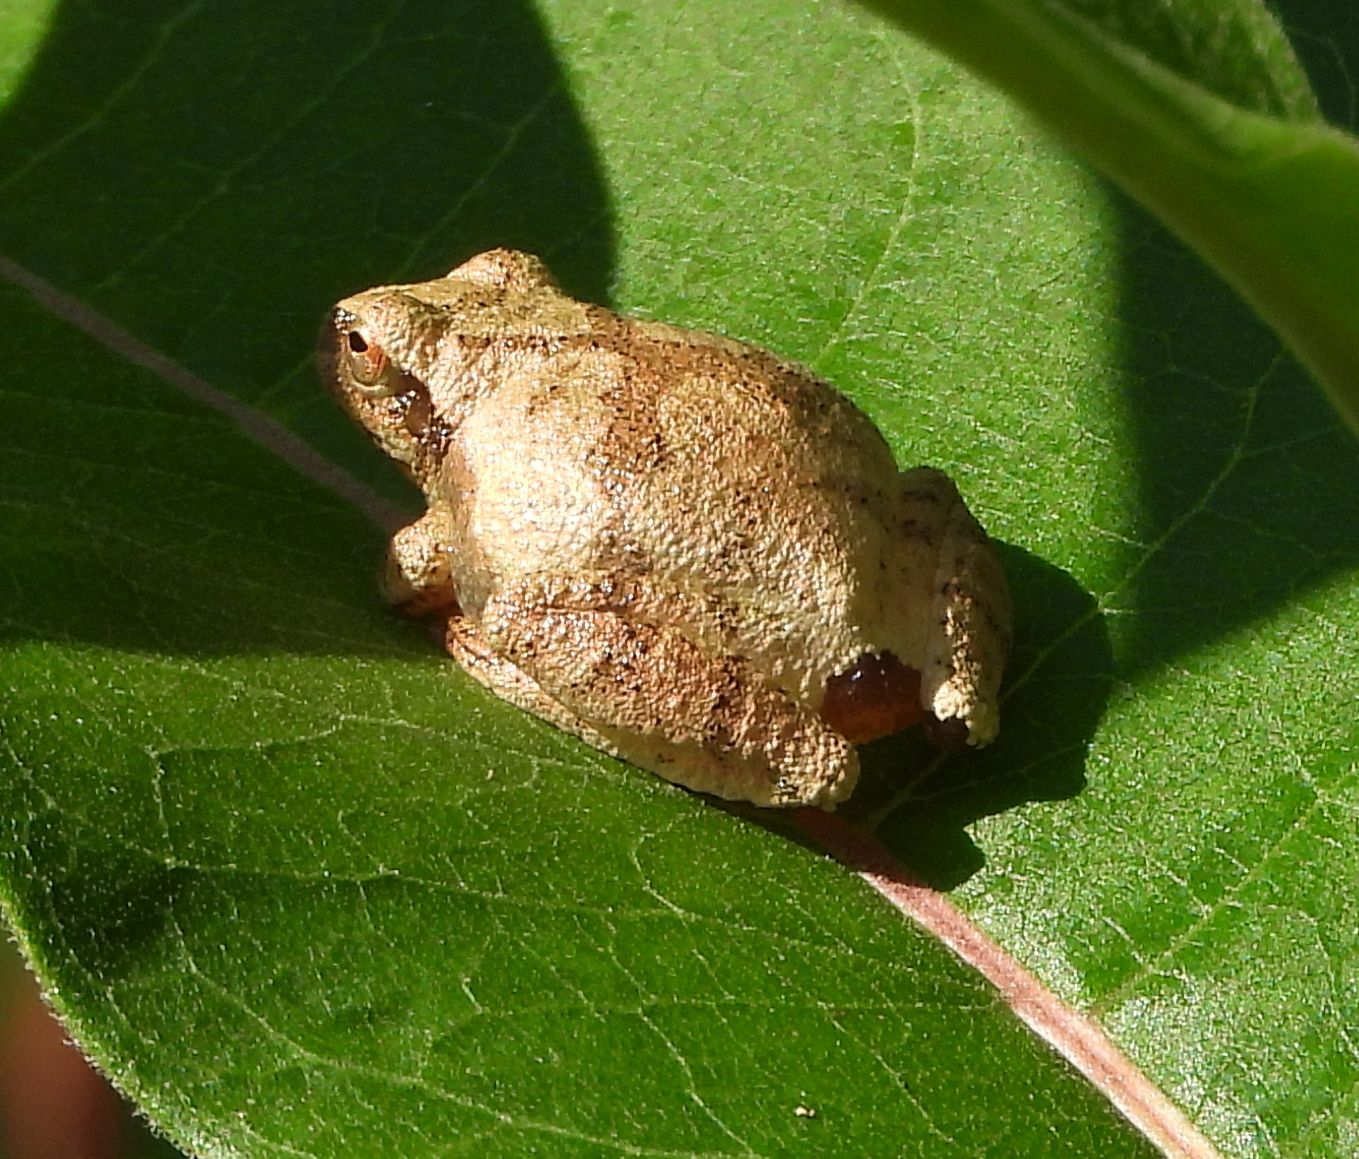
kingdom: Animalia
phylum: Chordata
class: Amphibia
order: Anura
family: Hylidae
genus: Pseudacris
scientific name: Pseudacris crucifer
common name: Spring peeper
